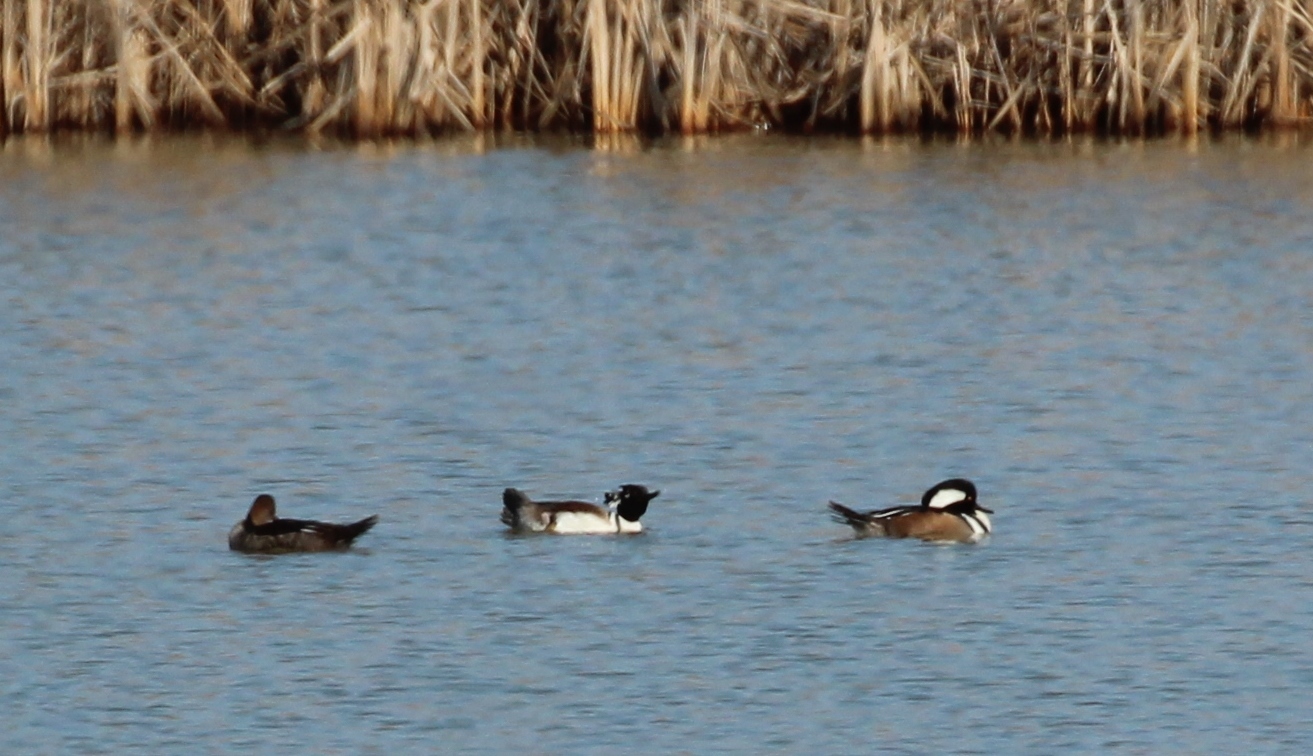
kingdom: Animalia
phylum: Chordata
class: Aves
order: Anseriformes
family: Anatidae
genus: Lophodytes
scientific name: Lophodytes cucullatus
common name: Hooded merganser
